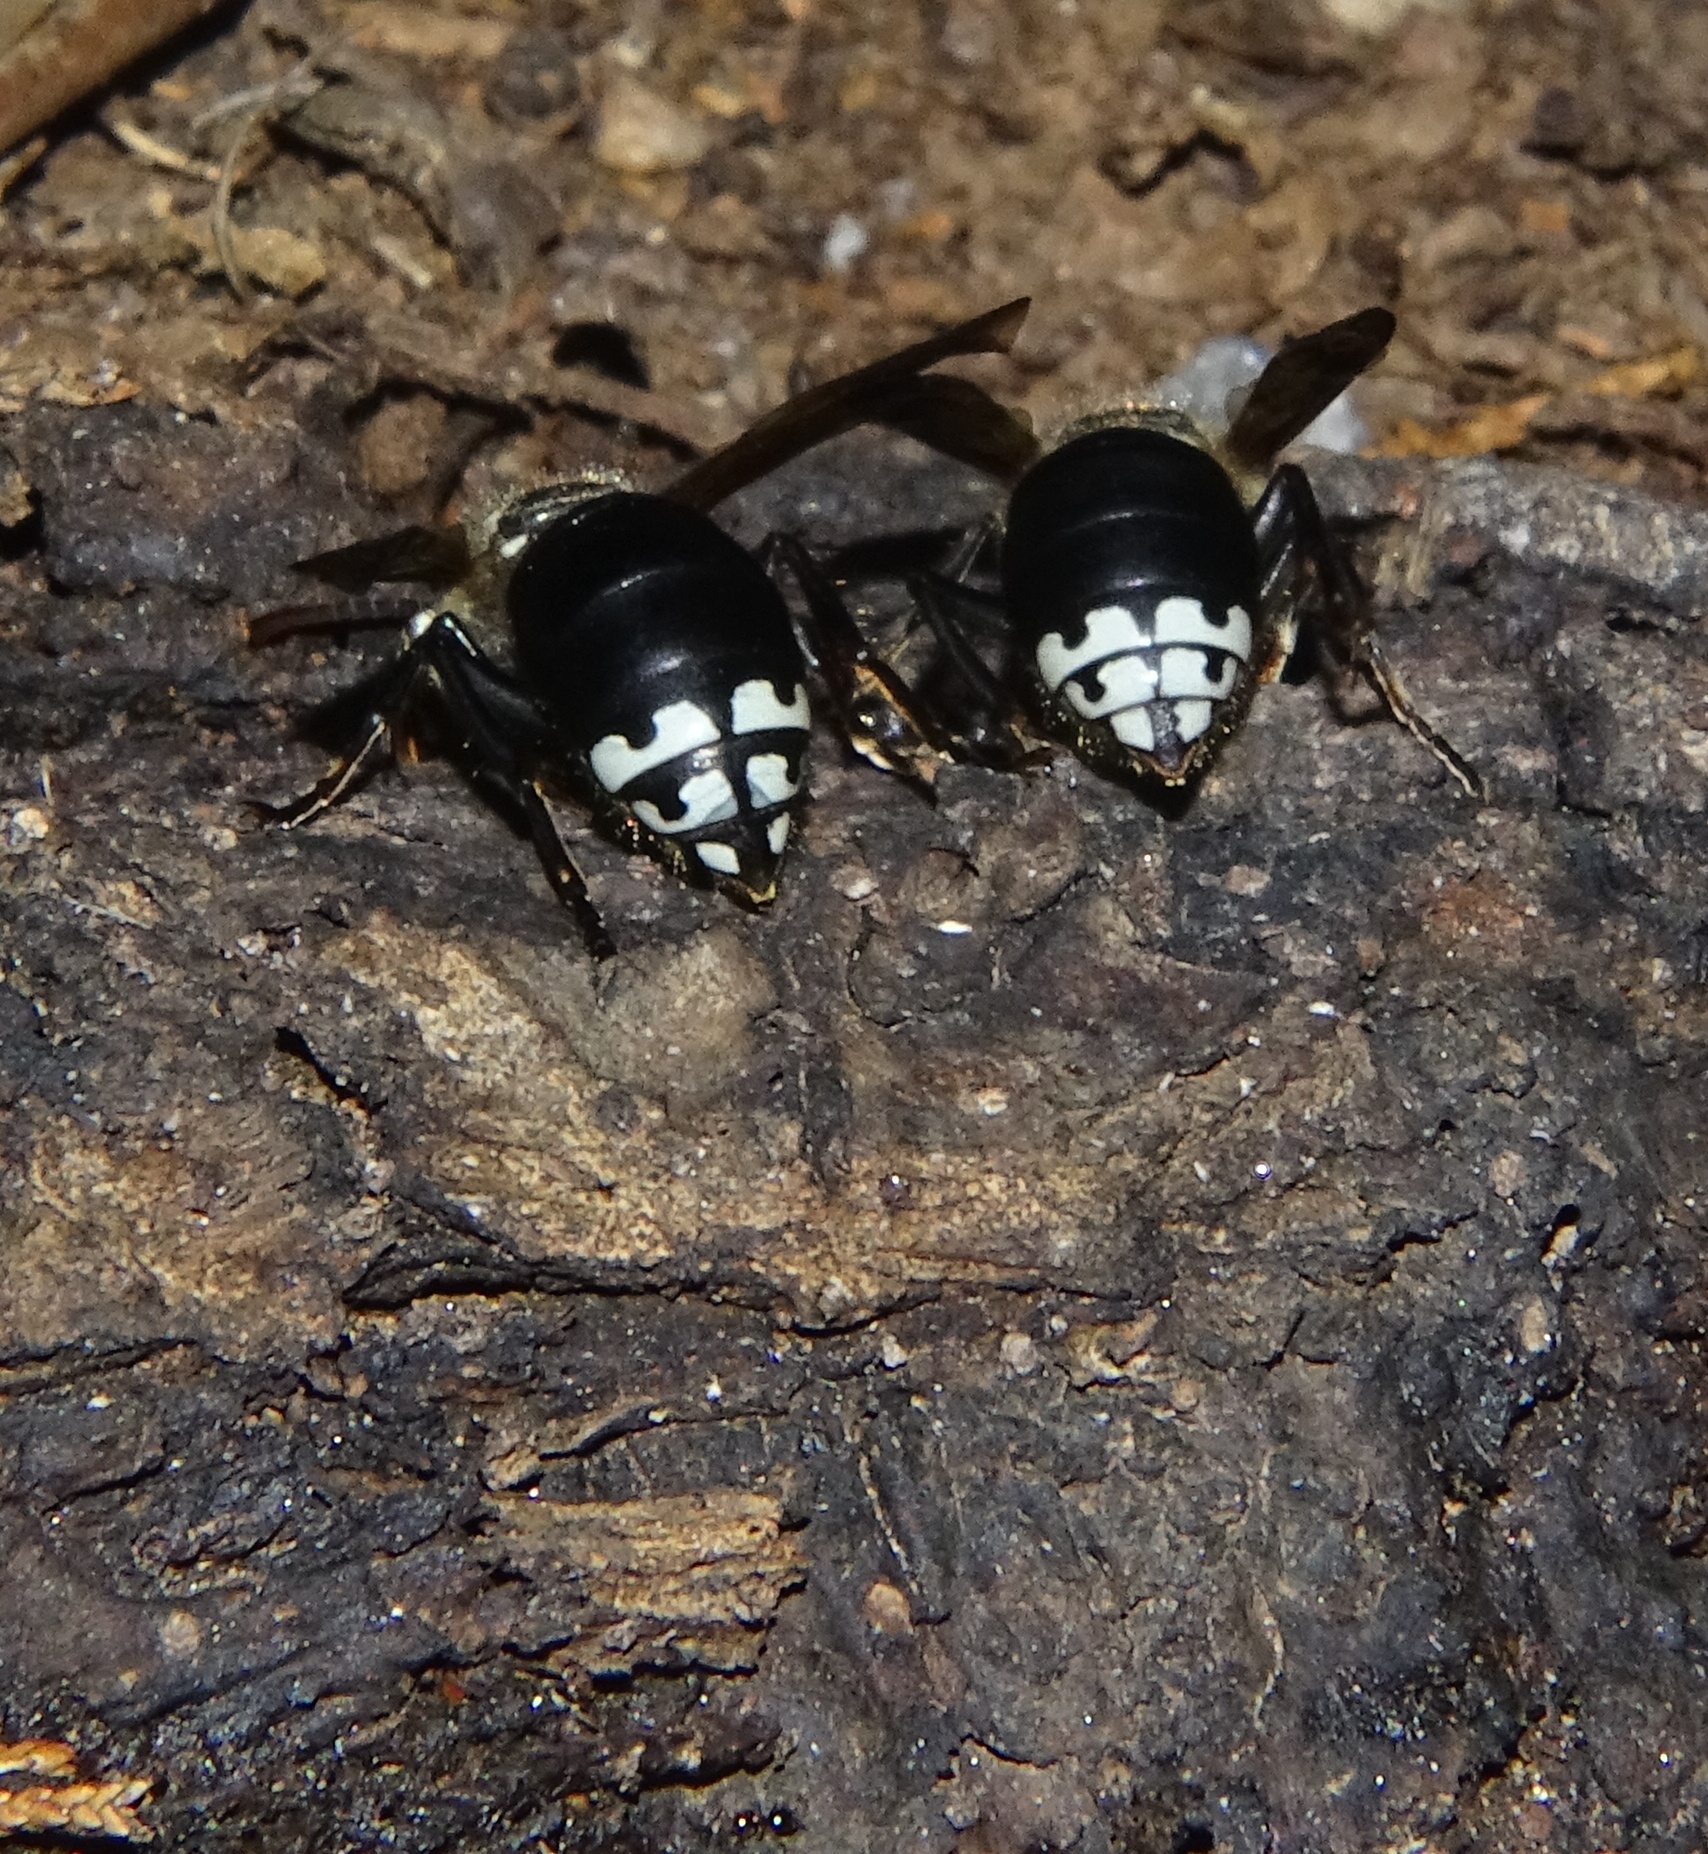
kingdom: Animalia
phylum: Arthropoda
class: Insecta
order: Hymenoptera
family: Vespidae
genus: Dolichovespula
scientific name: Dolichovespula maculata
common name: Bald-faced hornet
